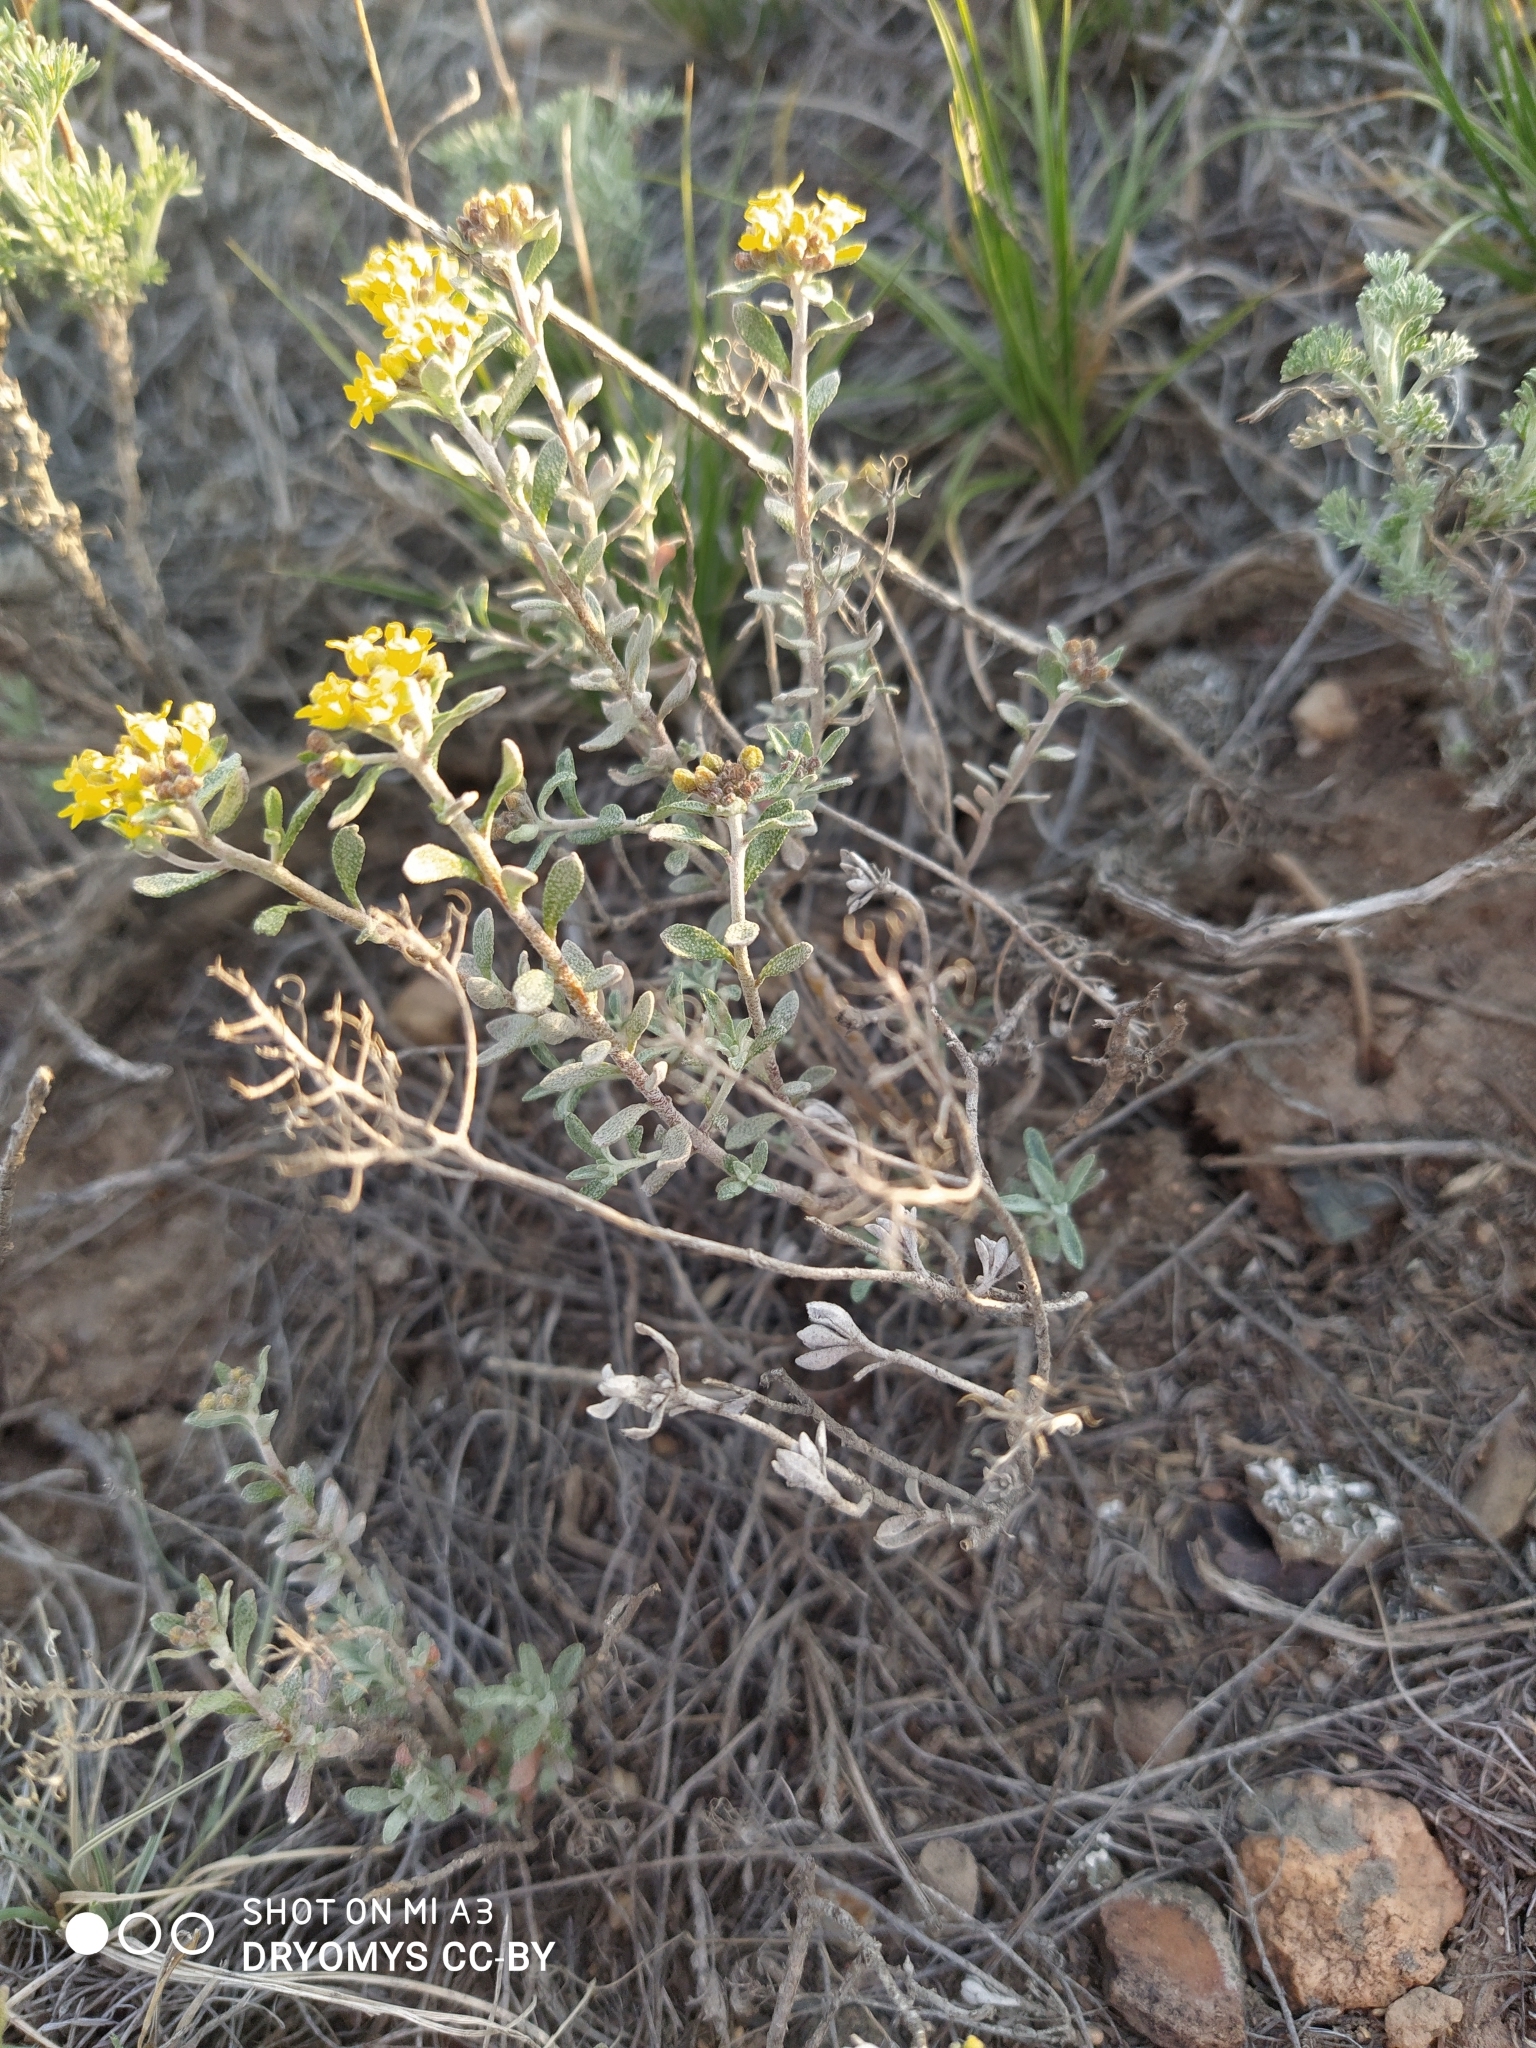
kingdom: Plantae
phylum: Tracheophyta
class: Magnoliopsida
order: Brassicales
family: Brassicaceae
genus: Odontarrhena
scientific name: Odontarrhena tortuosa
